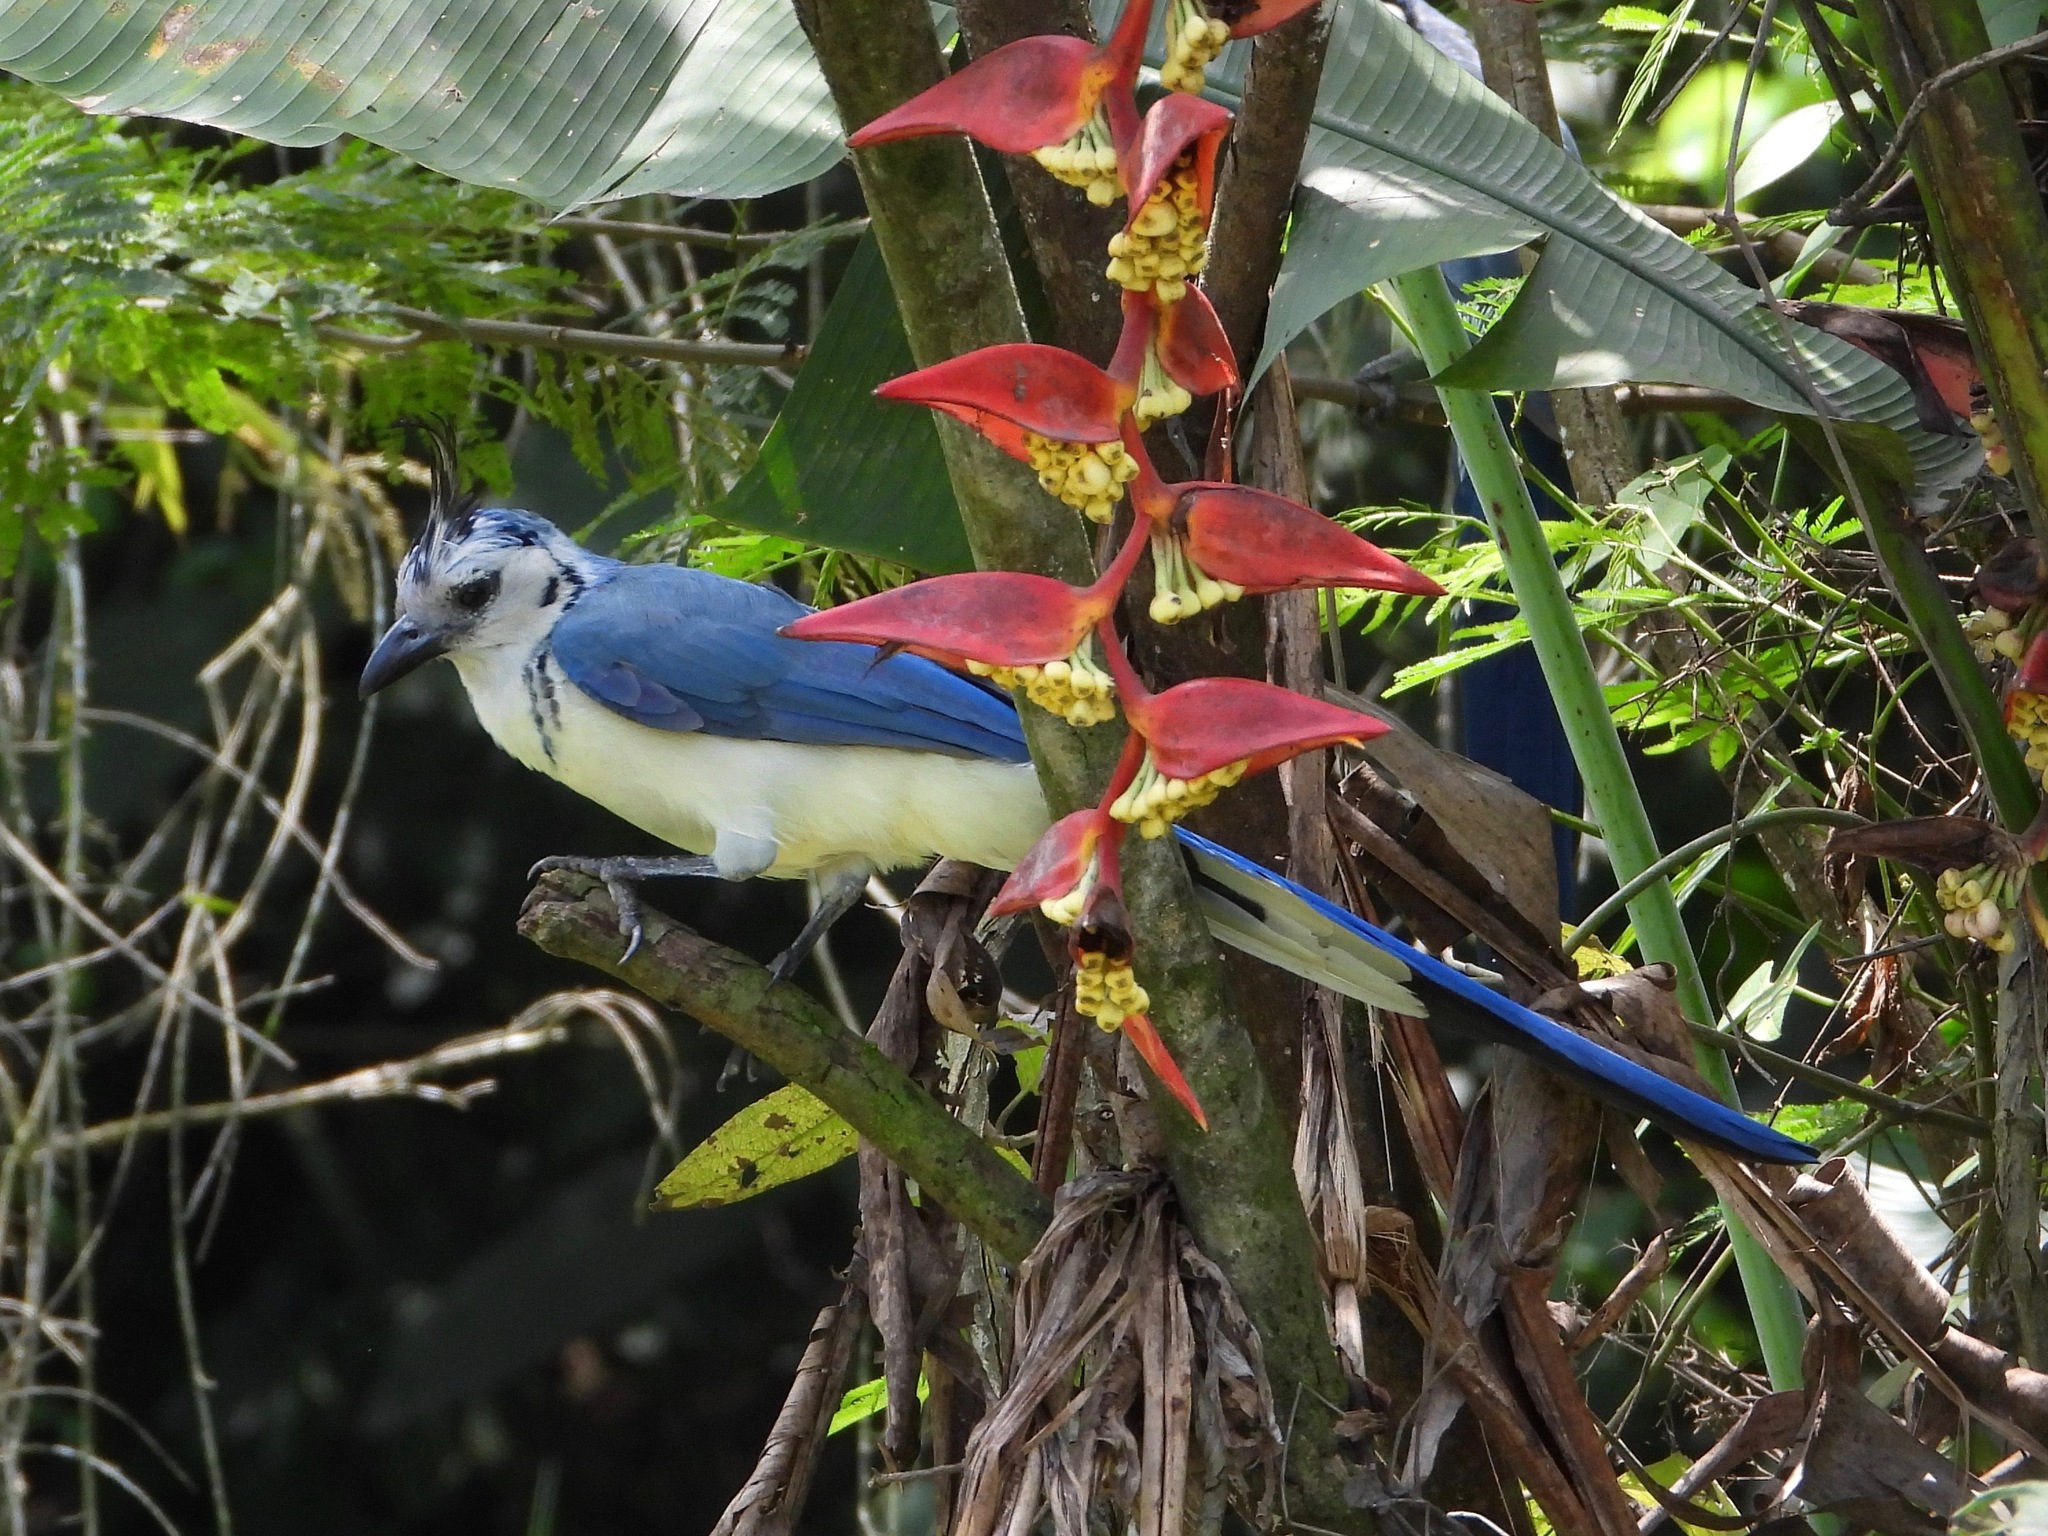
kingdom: Animalia
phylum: Chordata
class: Aves
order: Passeriformes
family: Corvidae
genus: Calocitta
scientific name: Calocitta formosa
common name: White-throated magpie-jay
